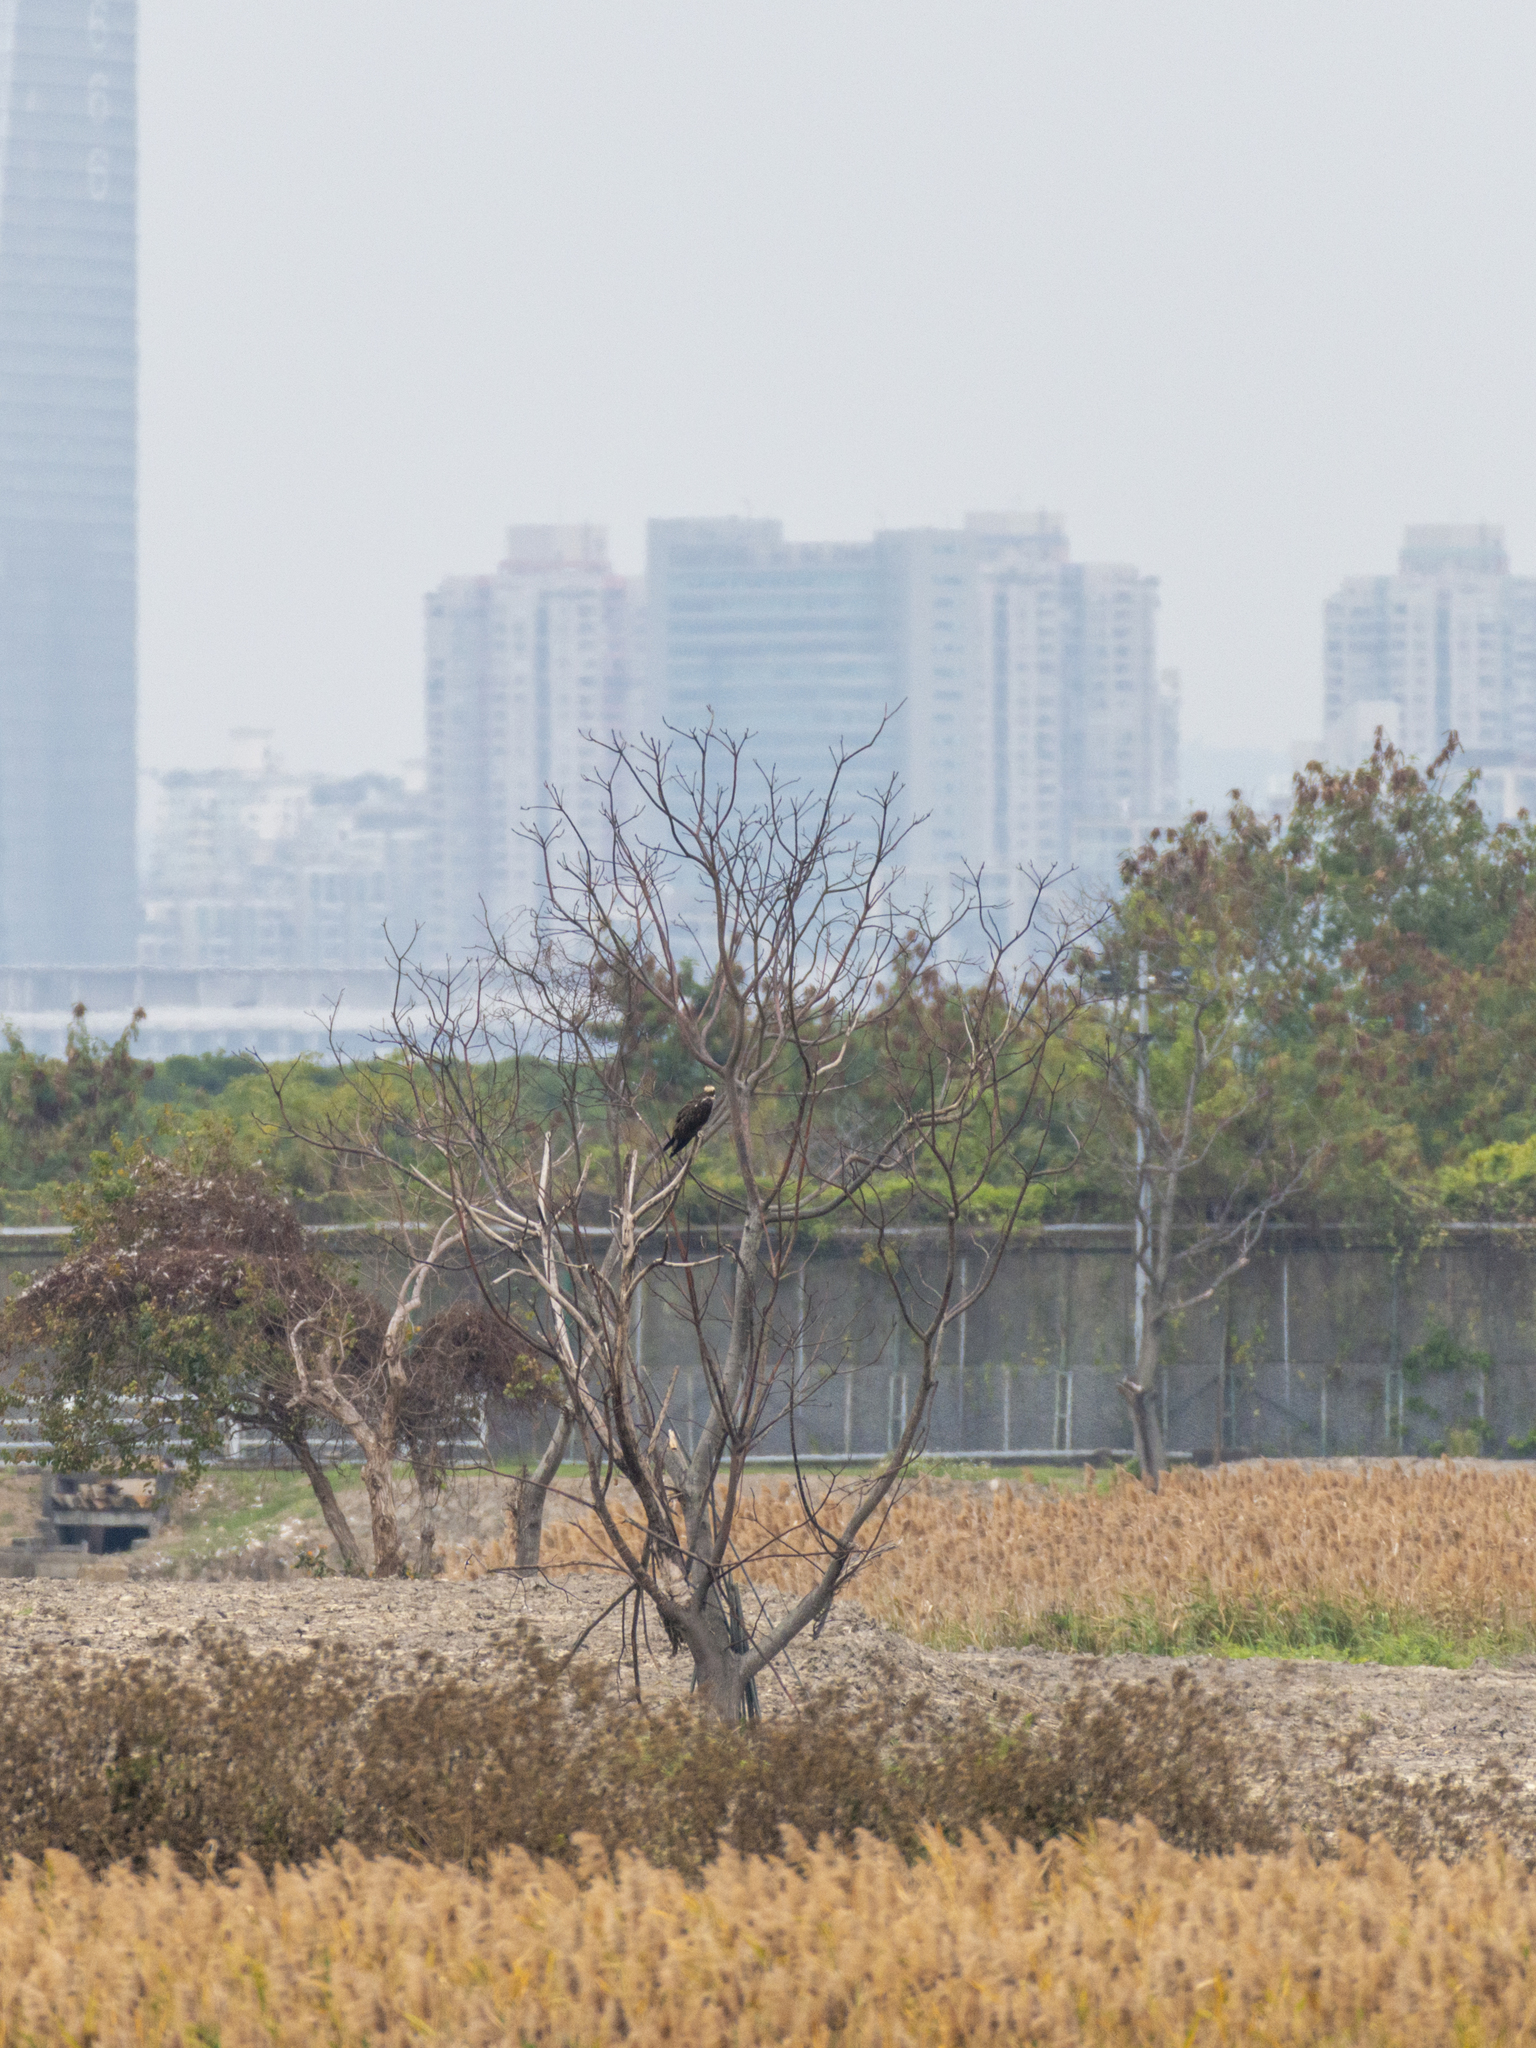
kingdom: Animalia
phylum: Chordata
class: Aves
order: Accipitriformes
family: Pandionidae
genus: Pandion
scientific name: Pandion haliaetus
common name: Osprey
